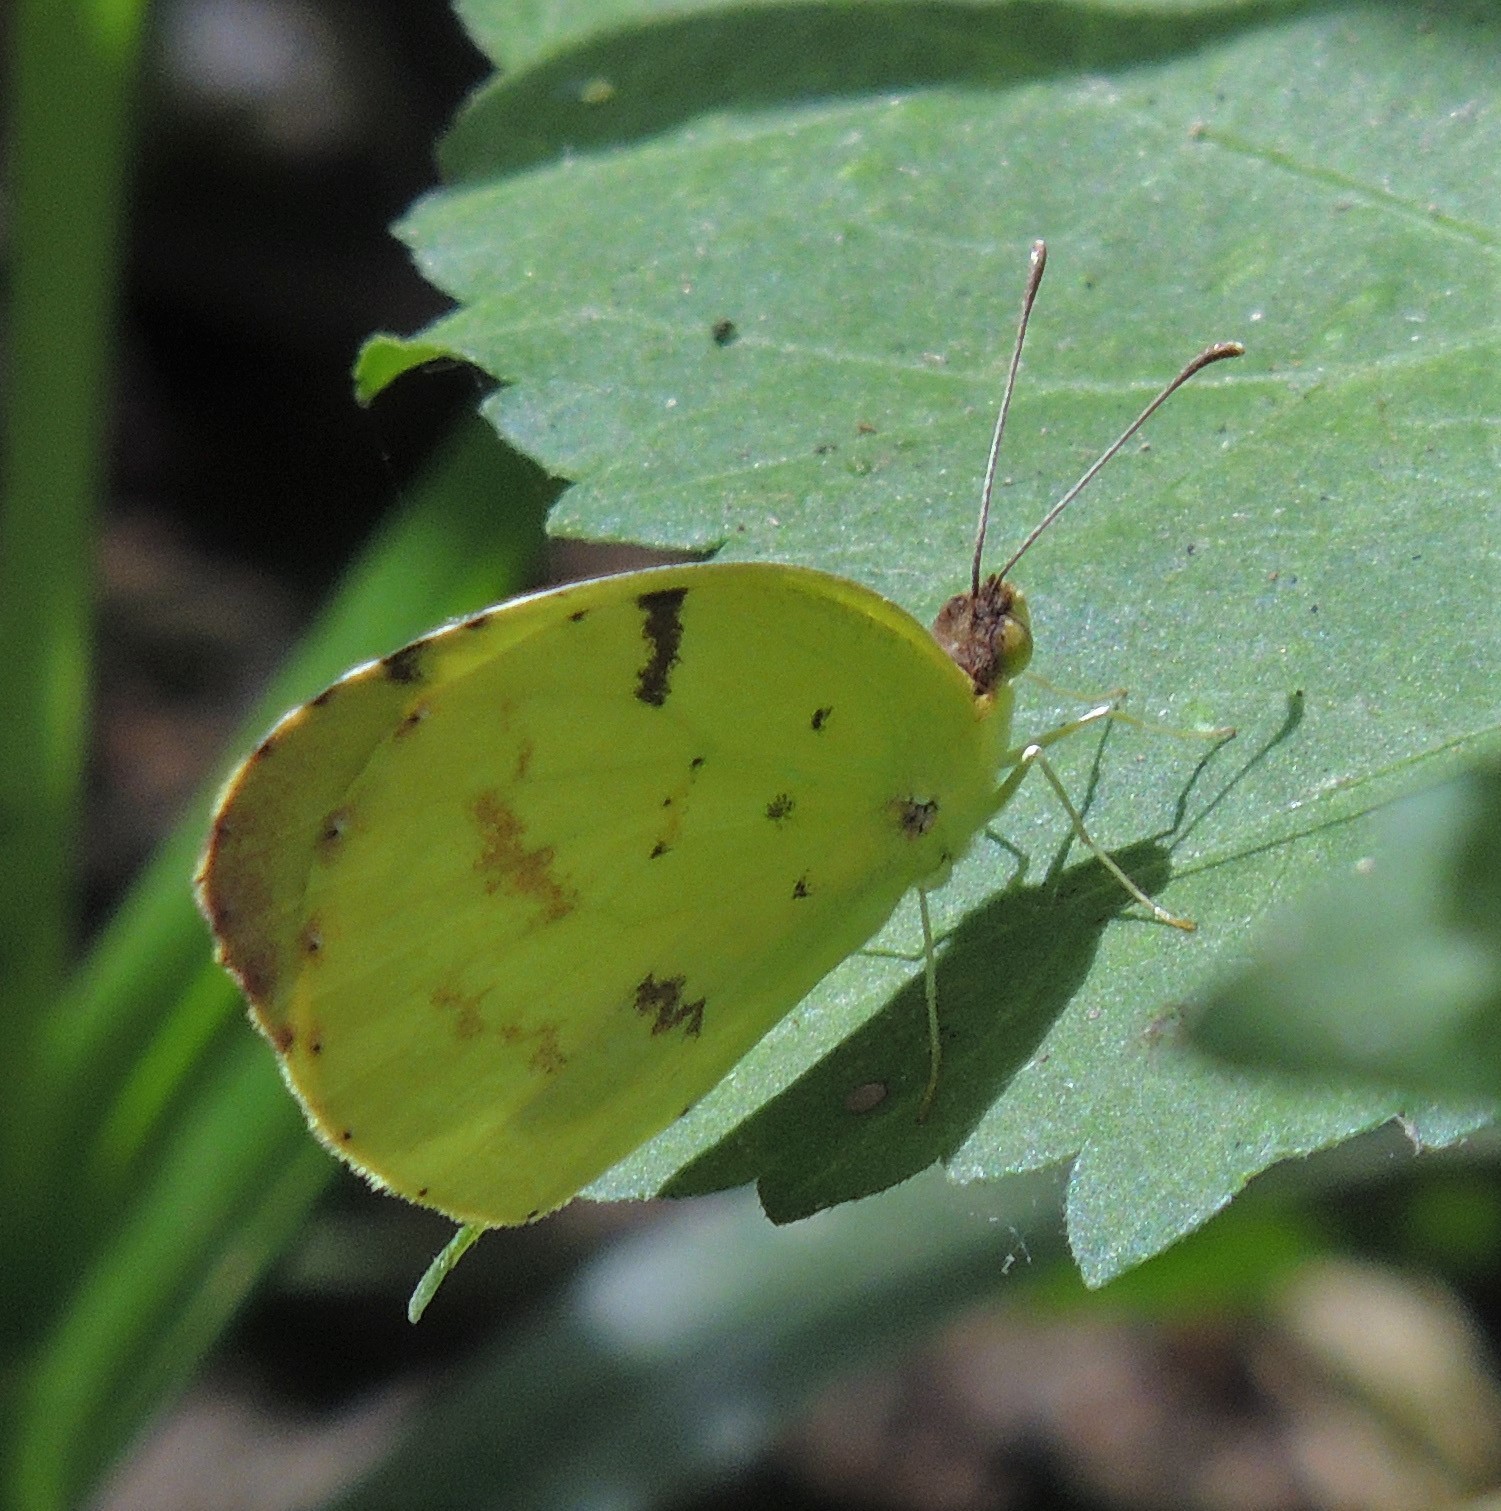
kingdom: Animalia
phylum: Arthropoda
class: Insecta
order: Lepidoptera
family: Pieridae
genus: Teriocolias
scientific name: Teriocolias
